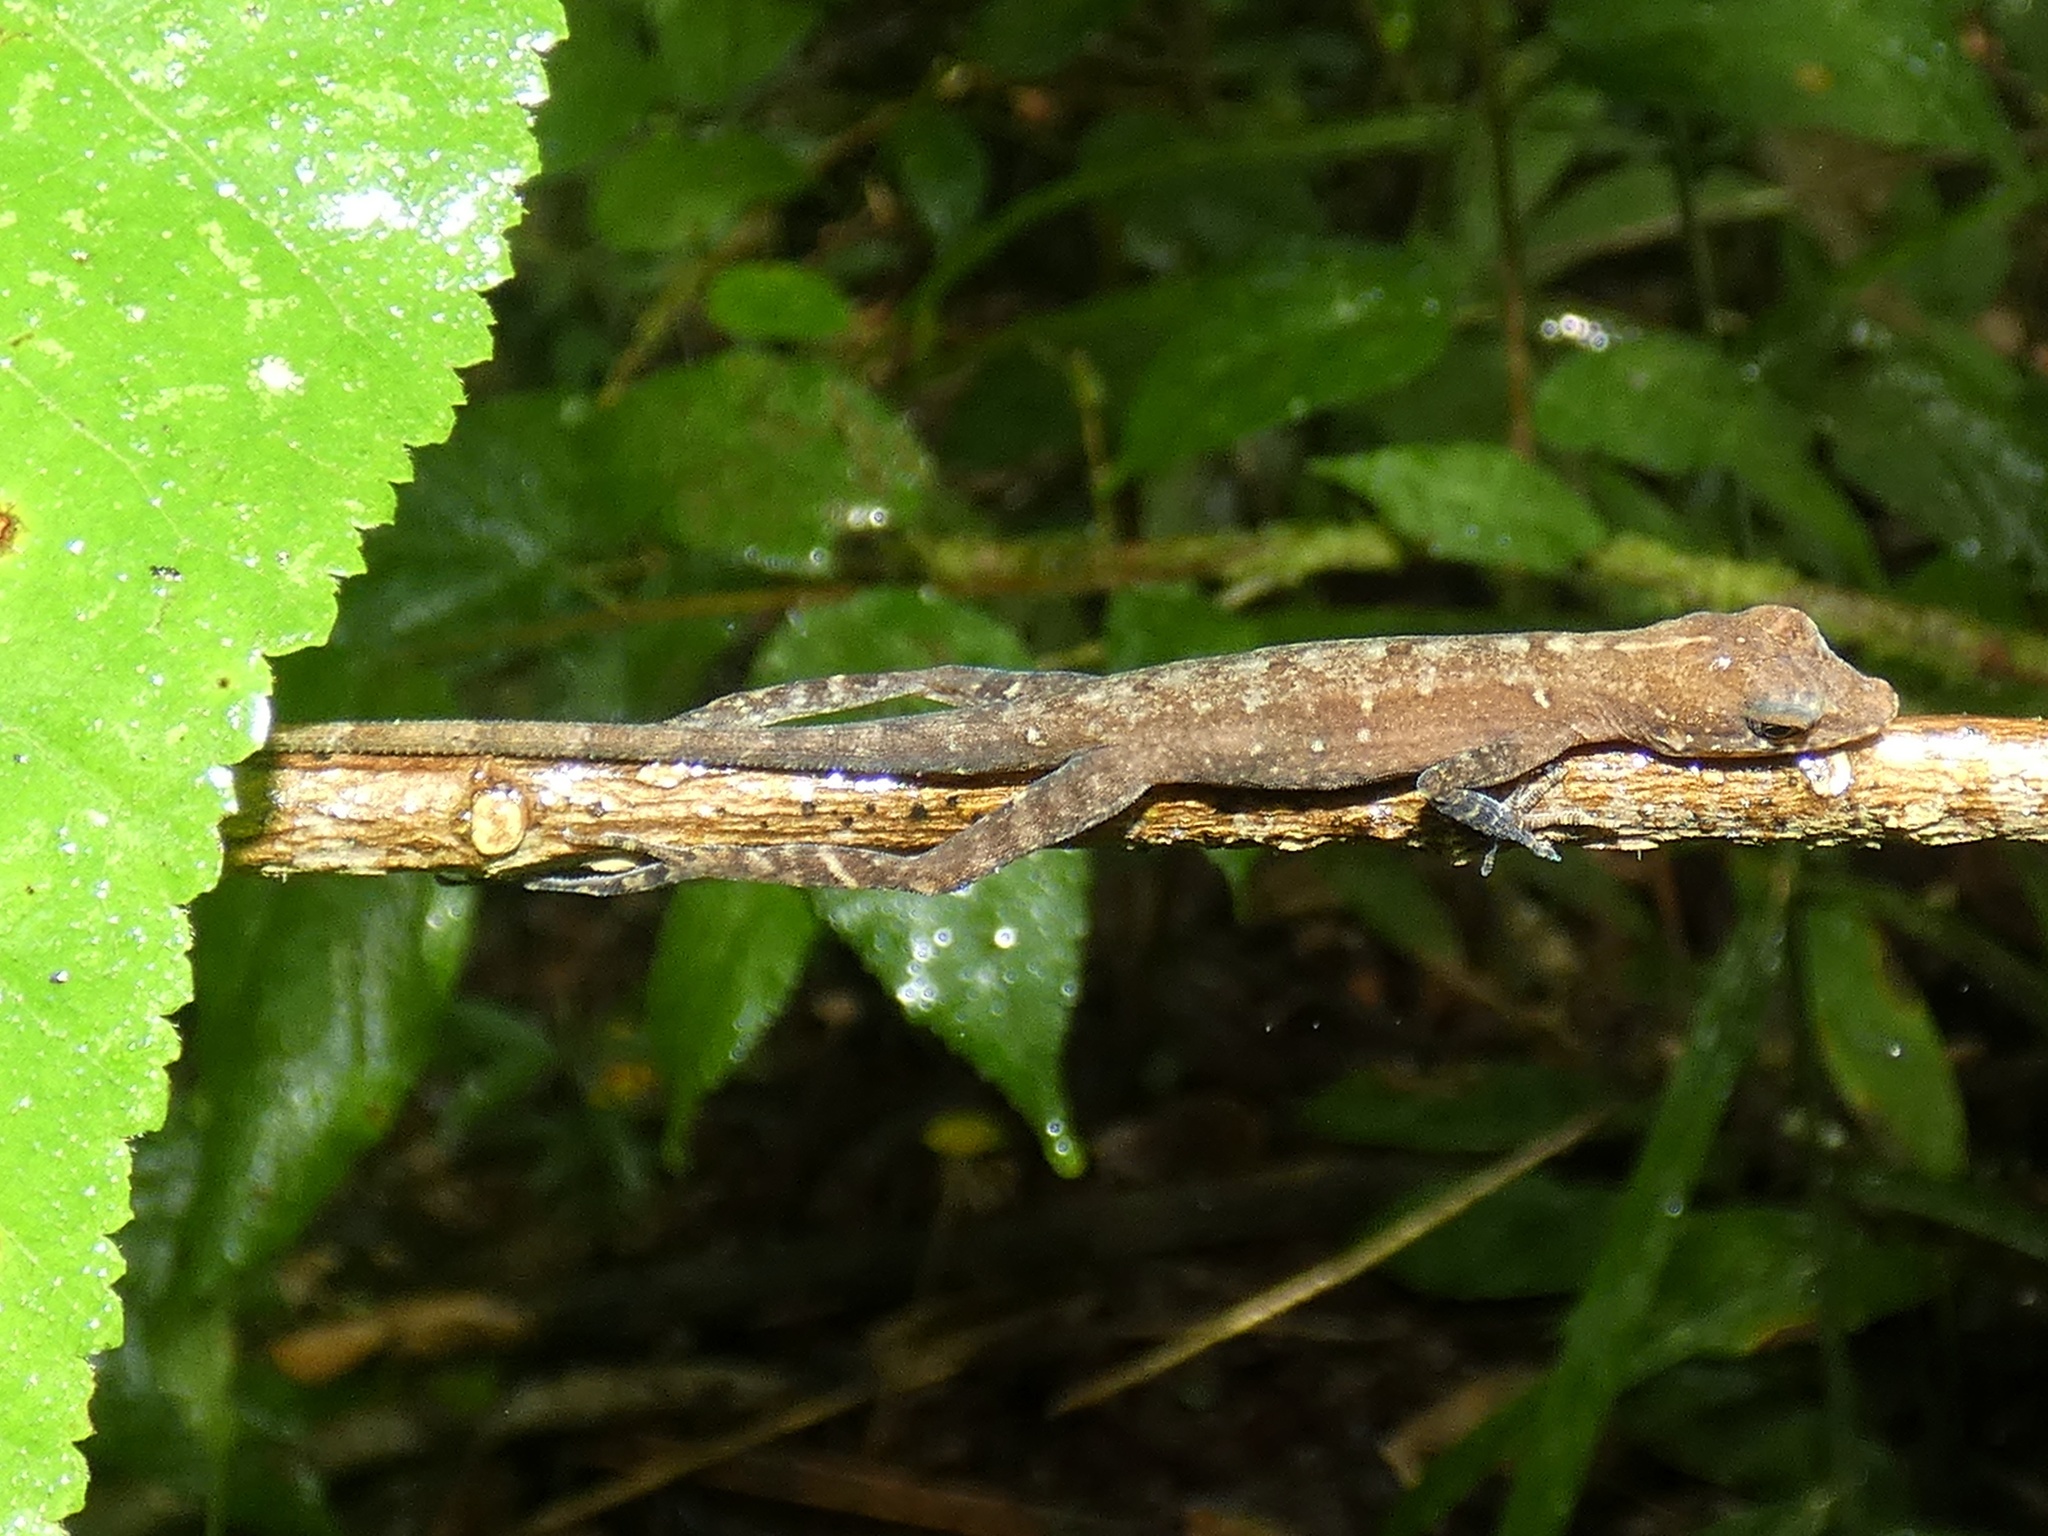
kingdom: Animalia
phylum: Chordata
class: Squamata
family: Dactyloidae
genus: Anolis
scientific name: Anolis apletophallus
